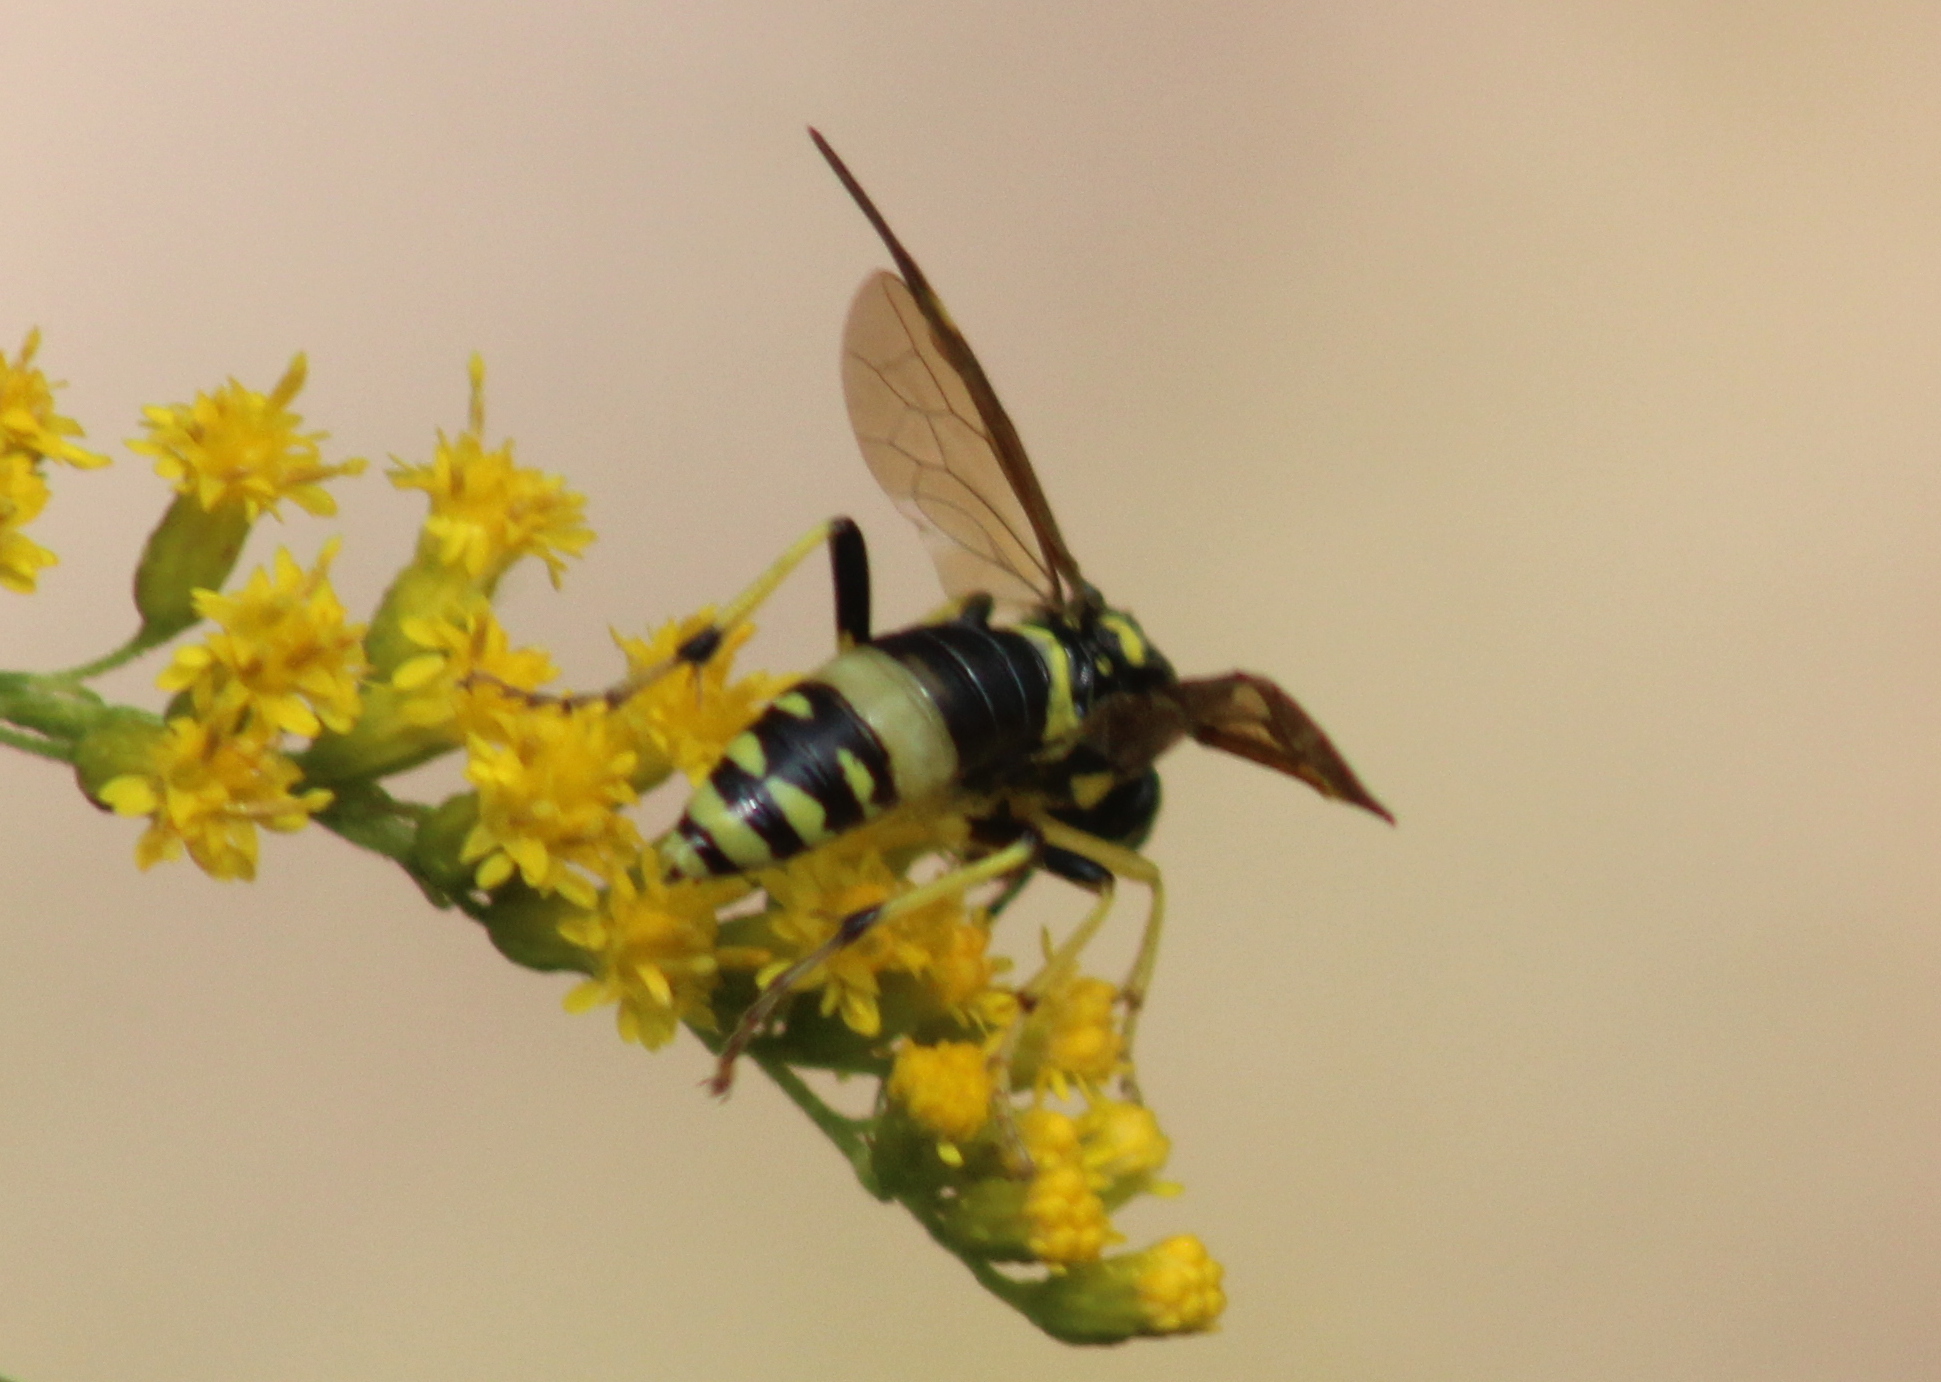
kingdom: Animalia
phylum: Arthropoda
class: Insecta
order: Hymenoptera
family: Tenthredinidae
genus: Tenthredo
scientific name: Tenthredo
